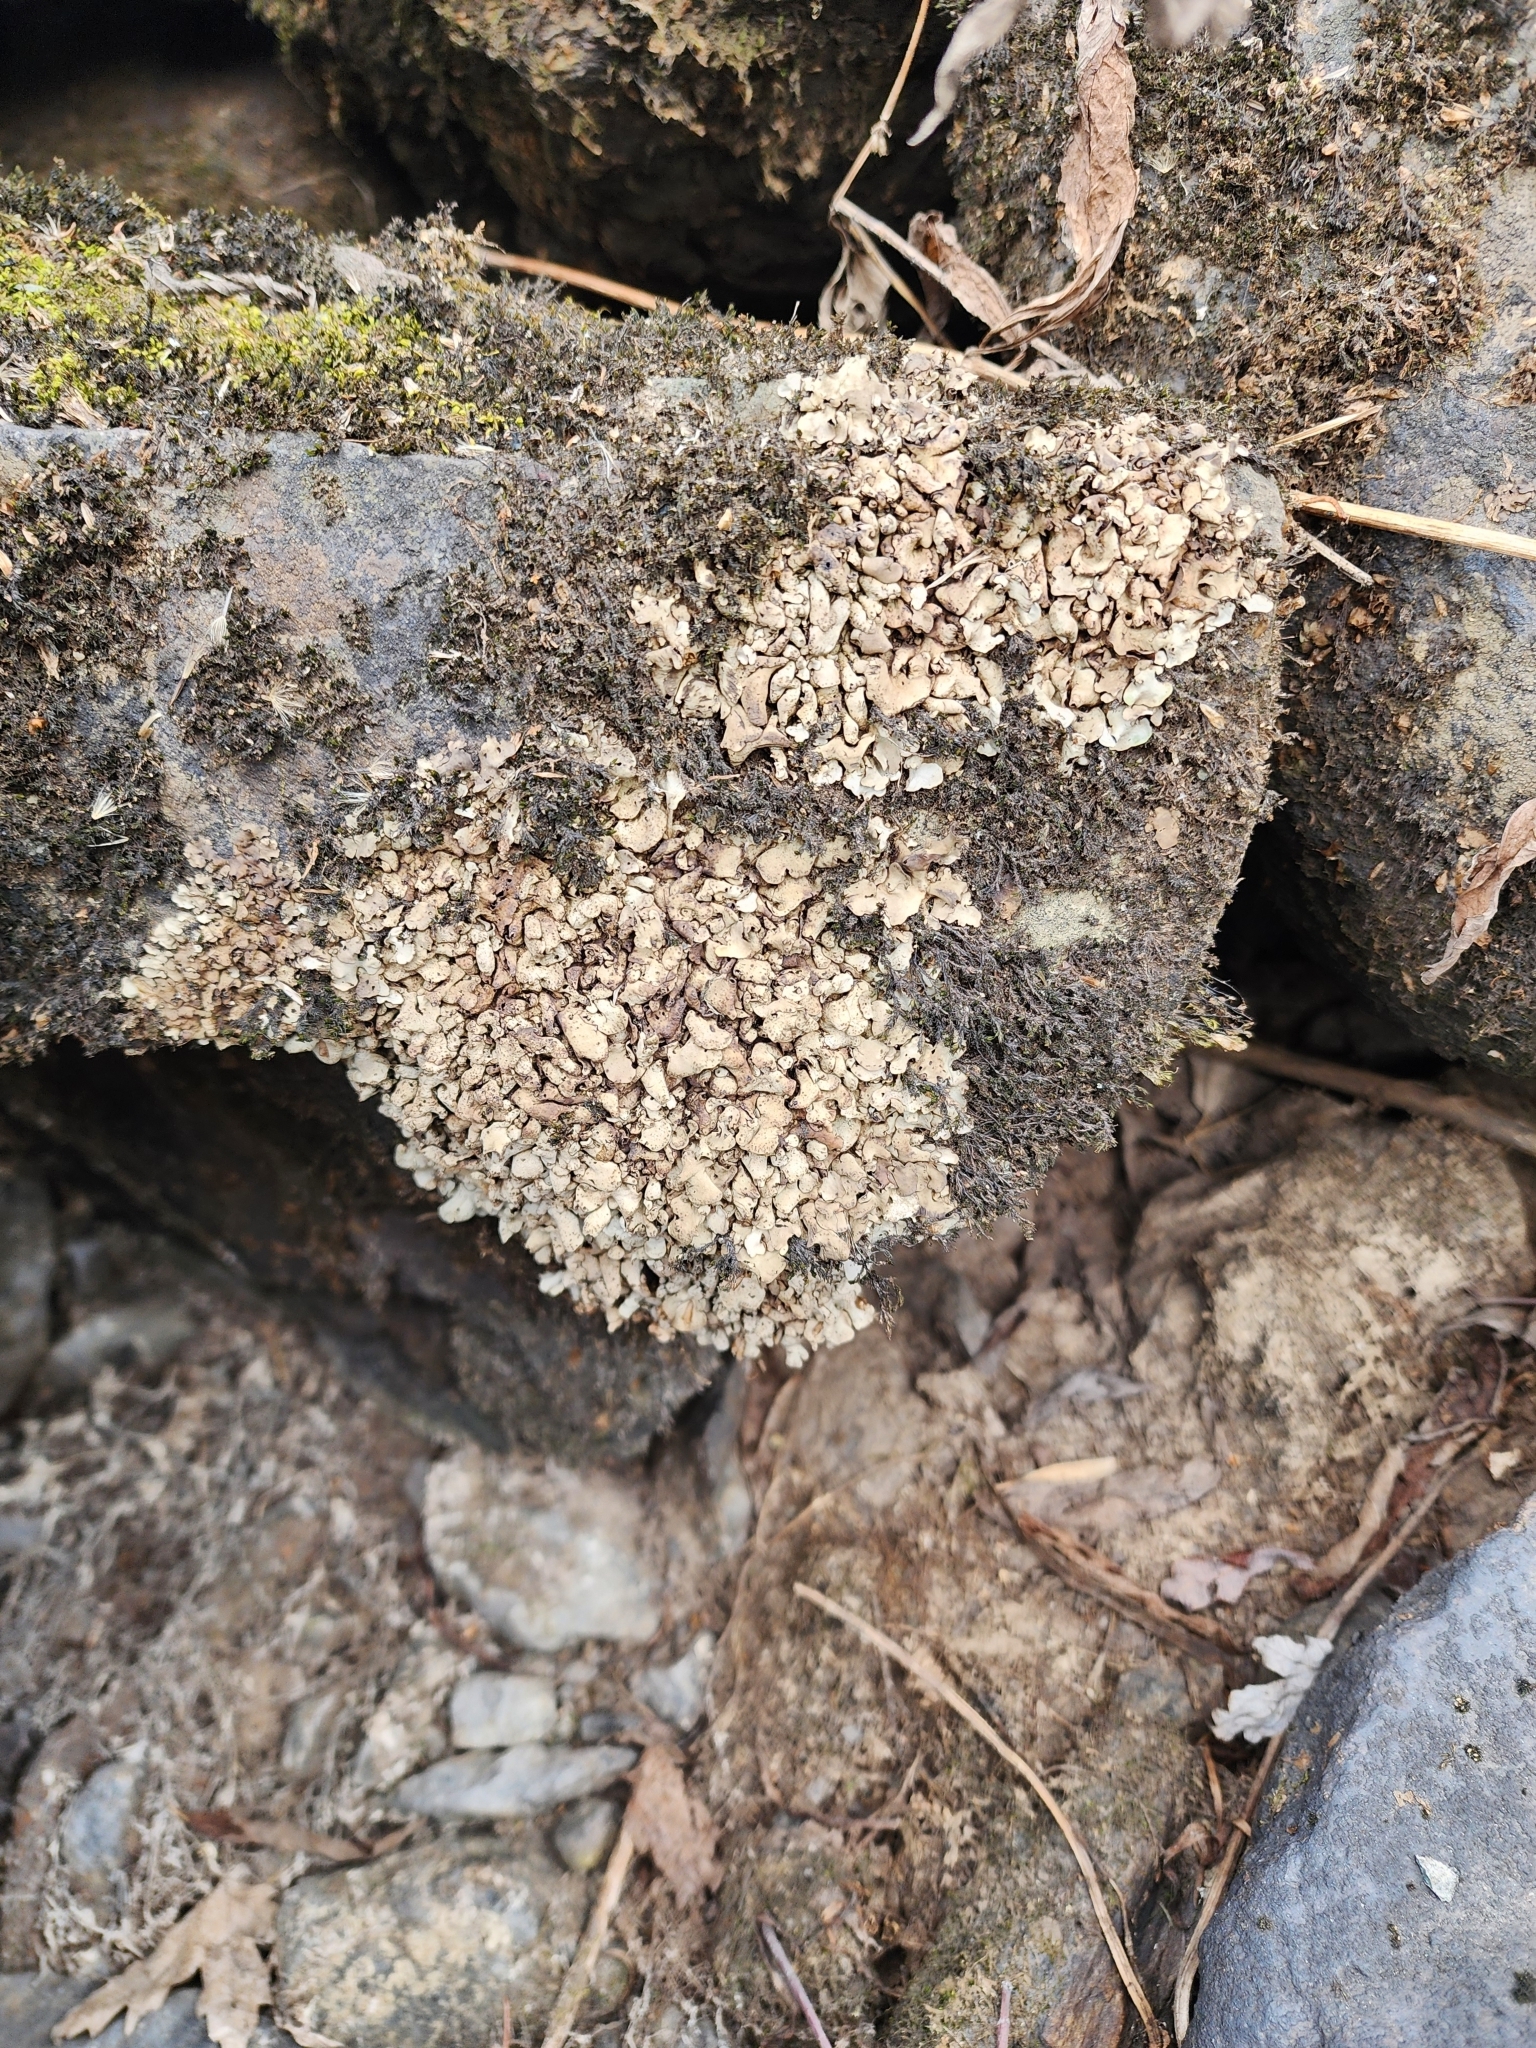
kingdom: Fungi
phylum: Ascomycota
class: Eurotiomycetes
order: Verrucariales
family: Verrucariaceae
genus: Dermatocarpon
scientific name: Dermatocarpon luridum
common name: Brook stippleback lichen
